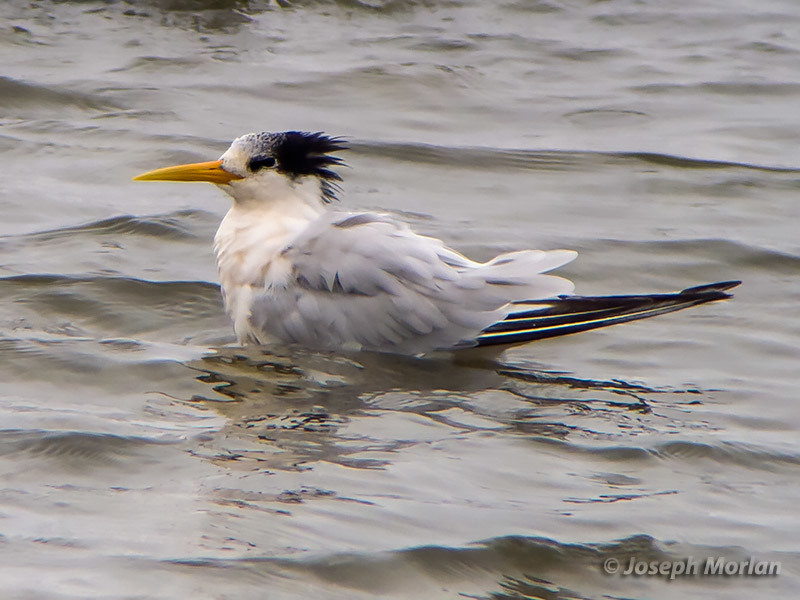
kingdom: Animalia
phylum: Chordata
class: Aves
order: Charadriiformes
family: Laridae
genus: Thalasseus
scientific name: Thalasseus elegans
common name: Elegant tern
